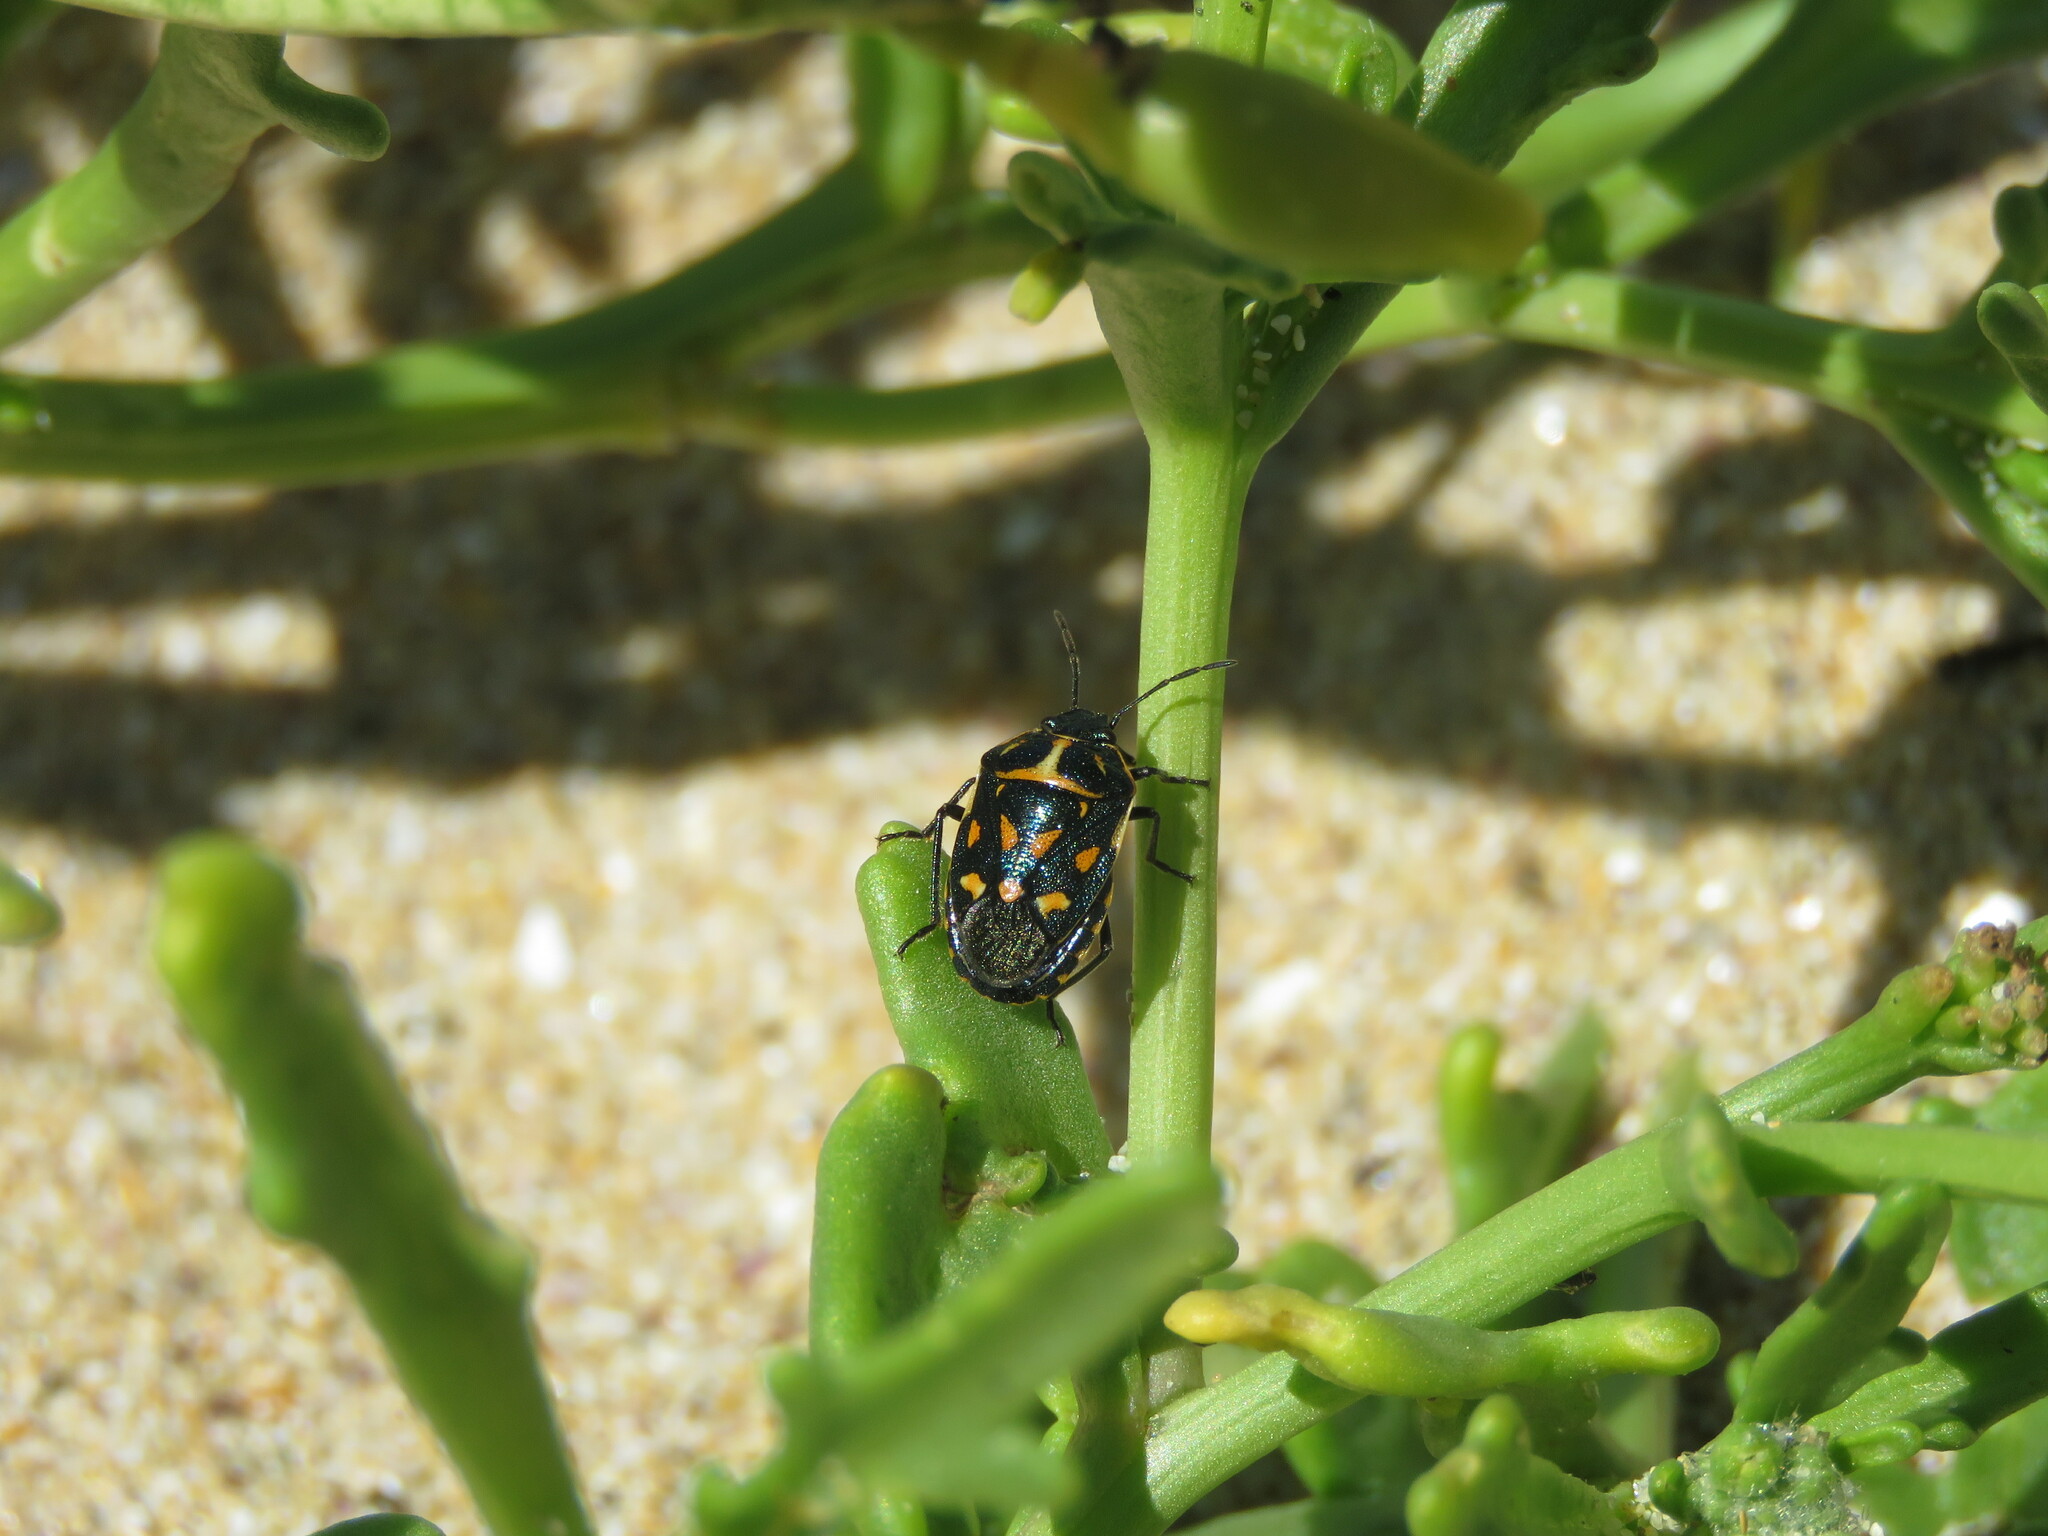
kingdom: Animalia
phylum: Arthropoda
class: Insecta
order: Hemiptera
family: Pentatomidae
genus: Eurydema
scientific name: Eurydema herbacea
